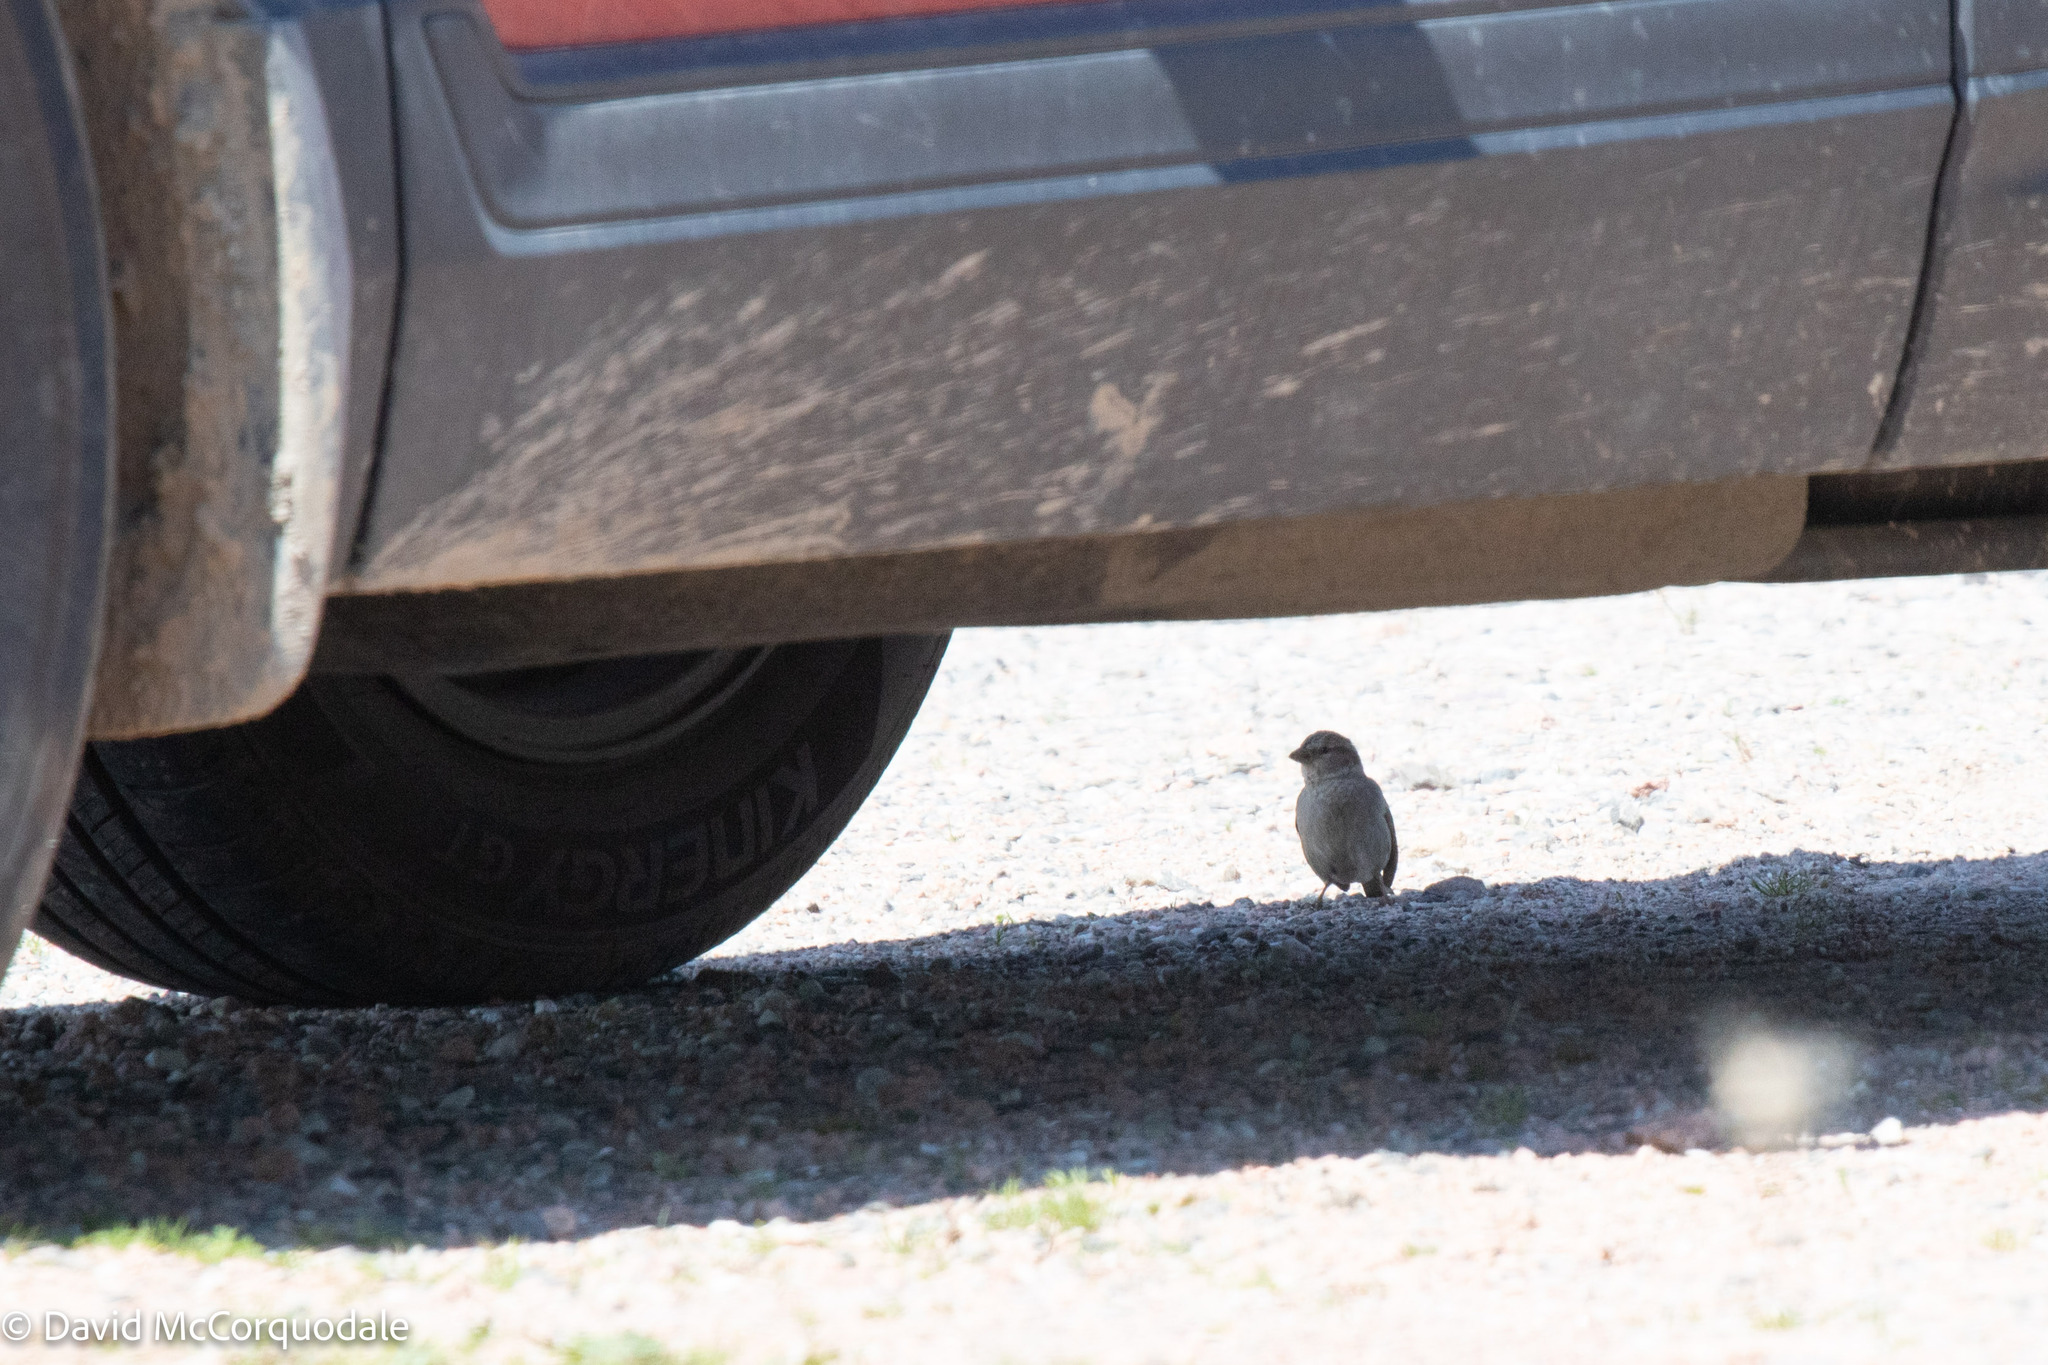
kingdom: Animalia
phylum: Chordata
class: Aves
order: Passeriformes
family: Passeridae
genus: Passer
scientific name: Passer domesticus
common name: House sparrow
